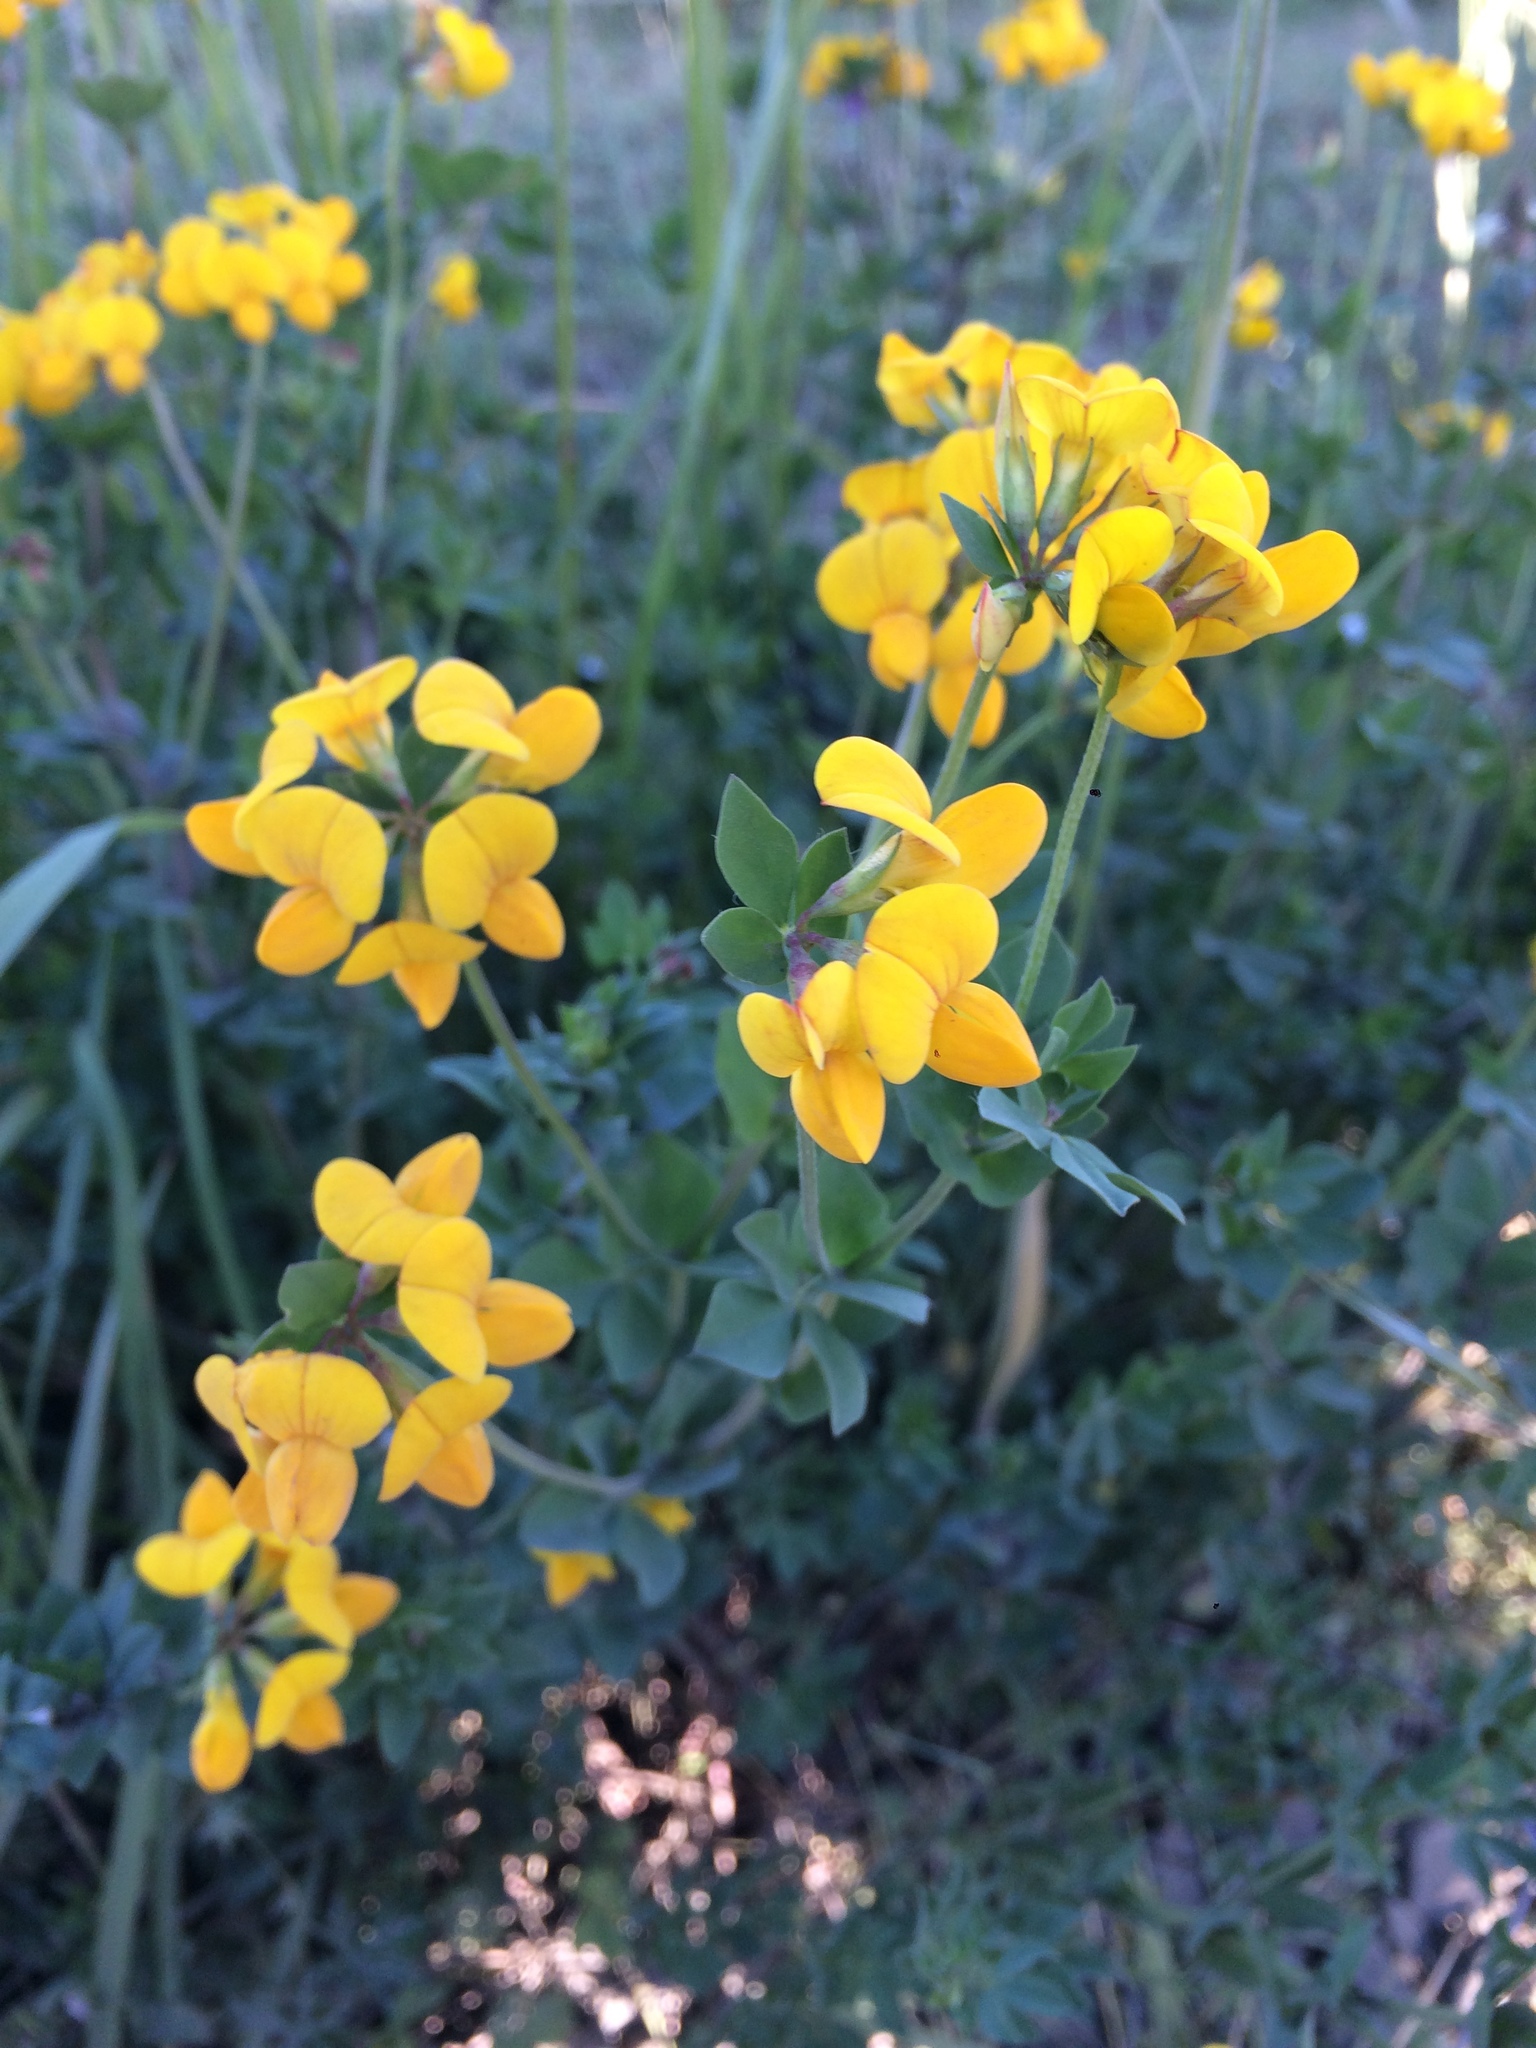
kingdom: Plantae
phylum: Tracheophyta
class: Magnoliopsida
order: Fabales
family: Fabaceae
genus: Lotus
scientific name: Lotus corniculatus
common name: Common bird's-foot-trefoil
